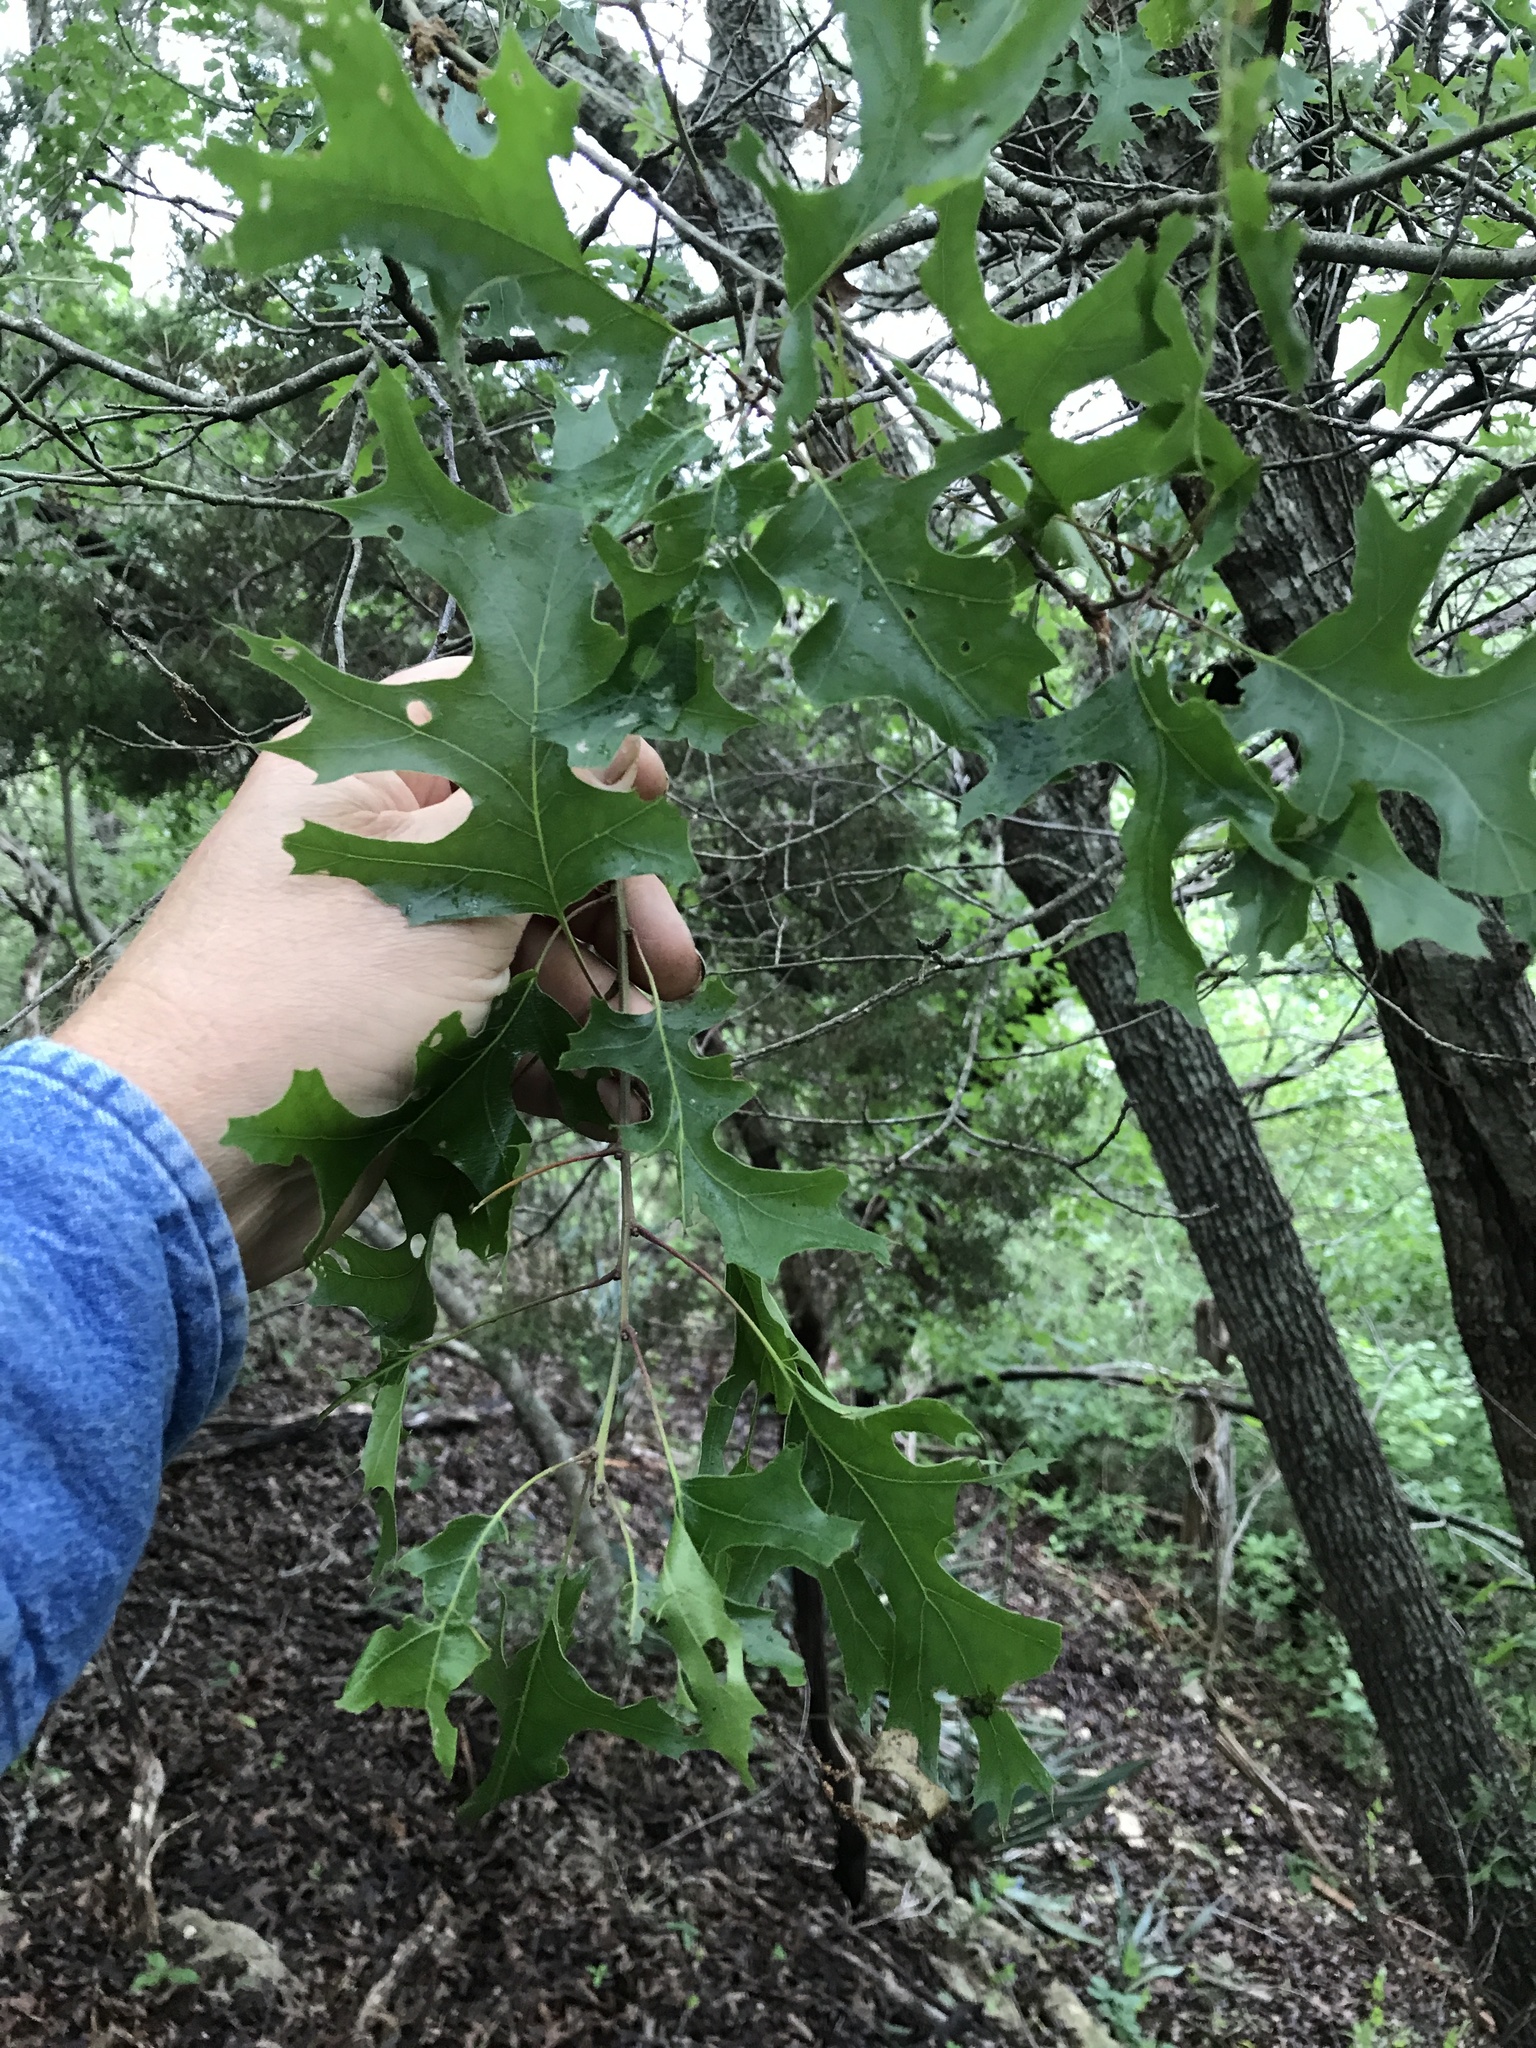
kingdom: Plantae
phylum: Tracheophyta
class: Magnoliopsida
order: Fagales
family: Fagaceae
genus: Quercus
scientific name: Quercus buckleyi
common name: Buckley oak
